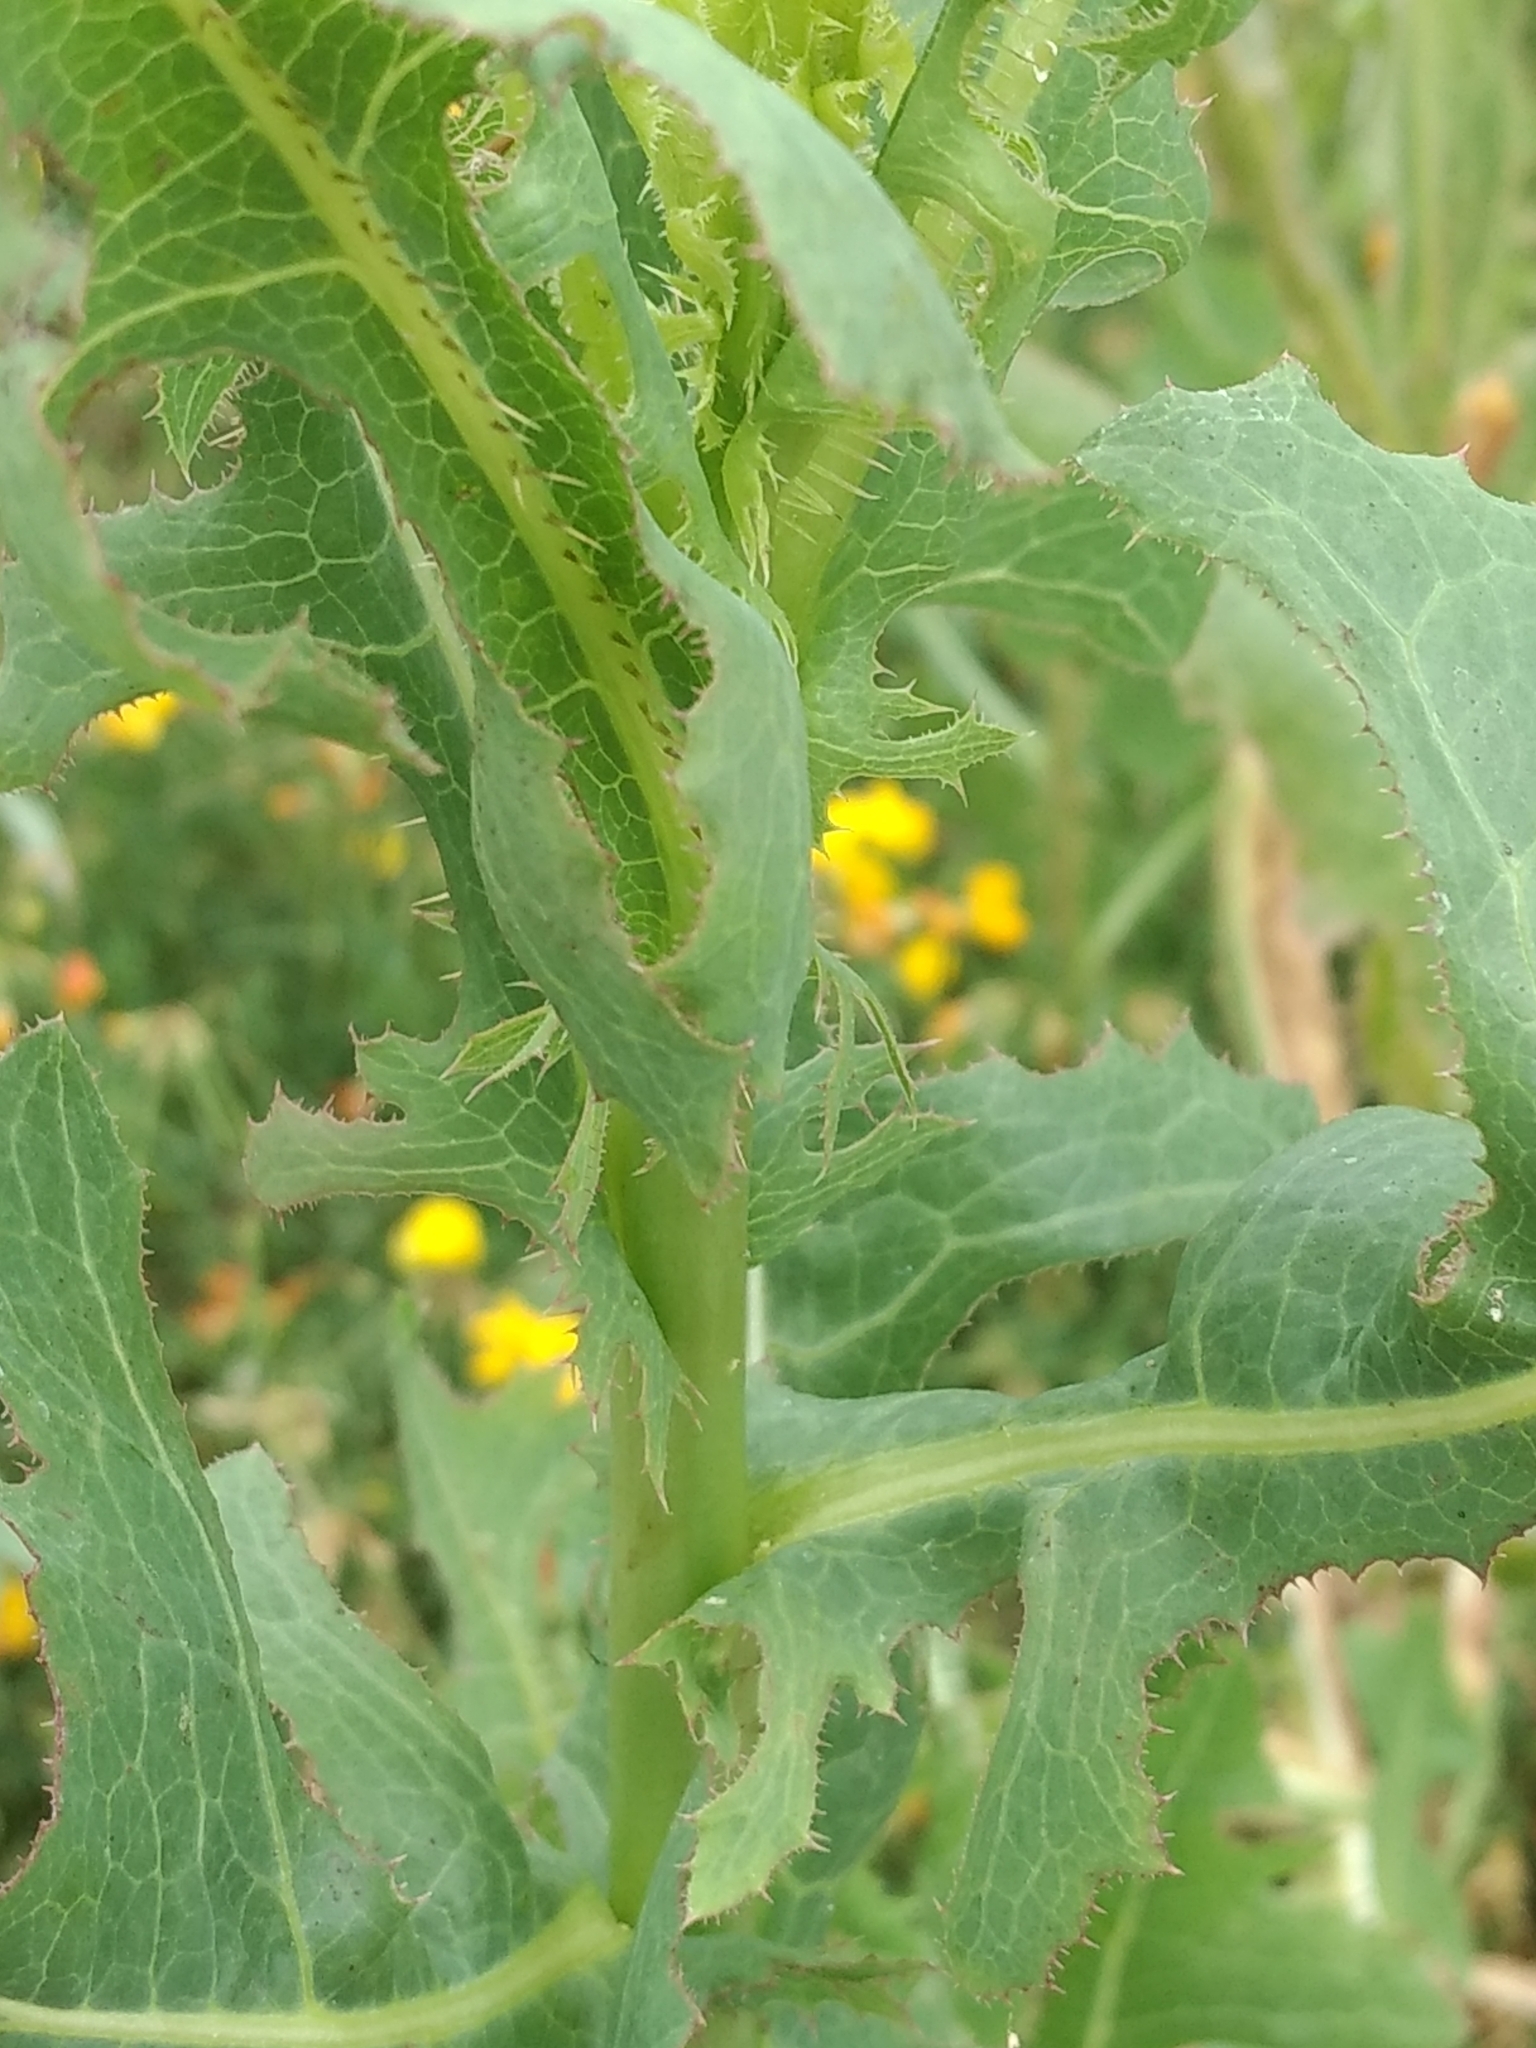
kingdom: Plantae
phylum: Tracheophyta
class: Magnoliopsida
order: Asterales
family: Asteraceae
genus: Lactuca
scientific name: Lactuca serriola
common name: Prickly lettuce
